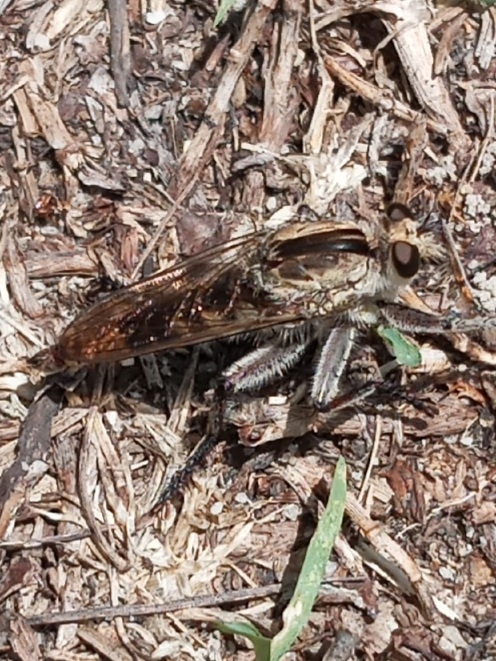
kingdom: Animalia
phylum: Arthropoda
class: Insecta
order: Diptera
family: Asilidae
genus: Triorla
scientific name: Triorla interrupta
